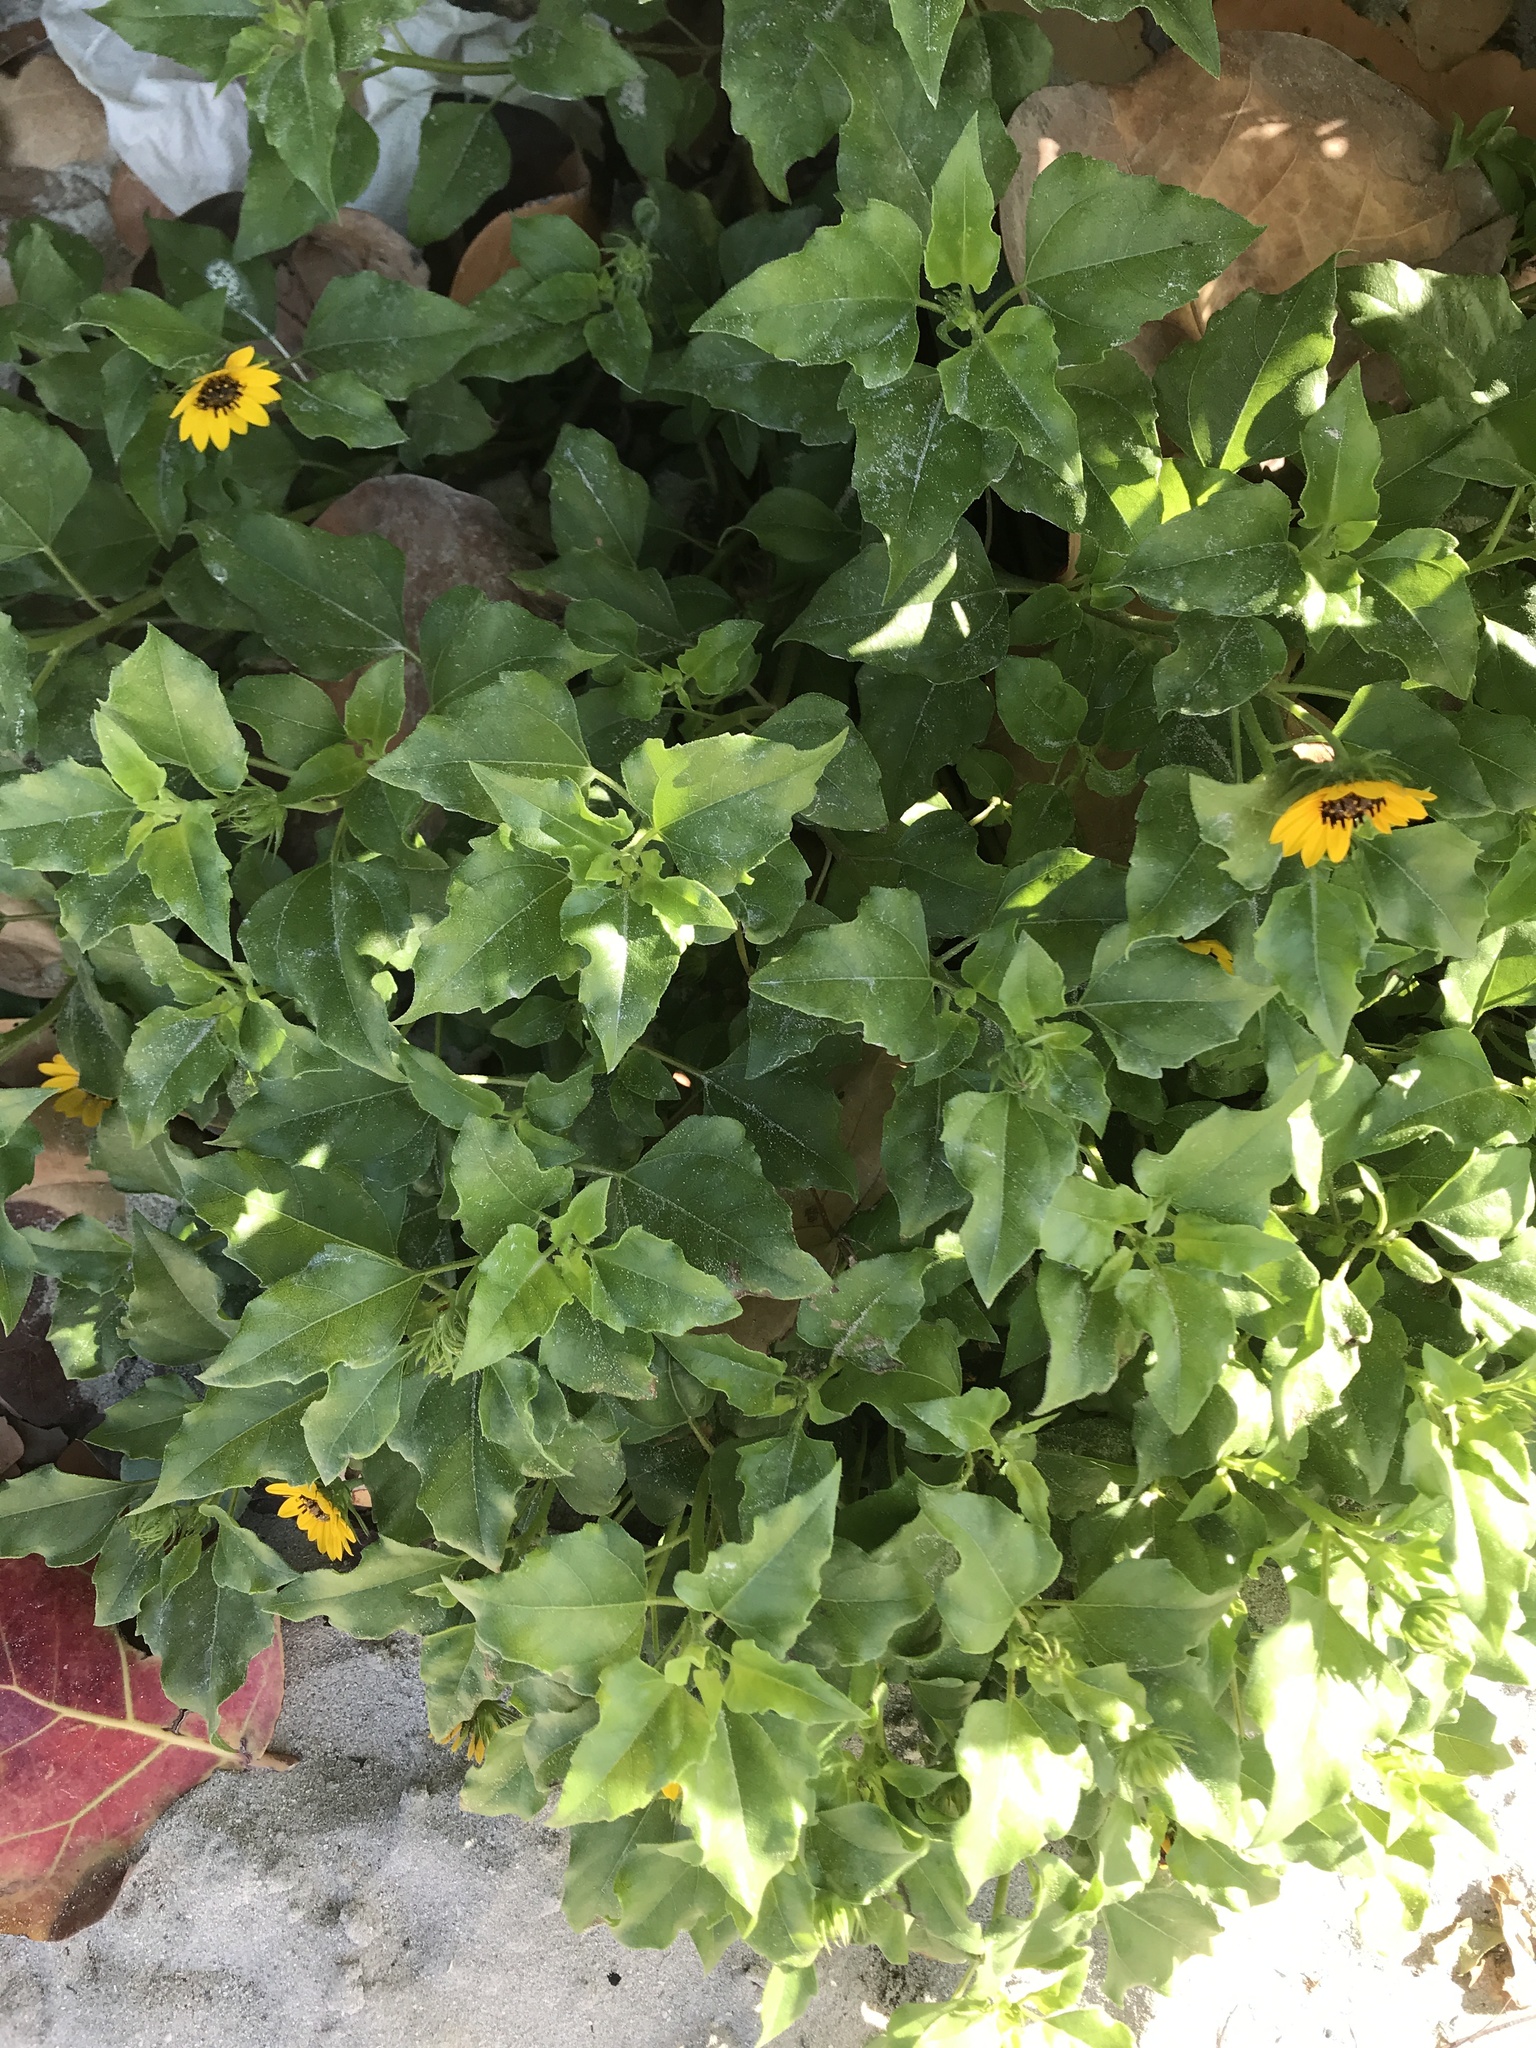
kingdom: Plantae
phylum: Tracheophyta
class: Magnoliopsida
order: Asterales
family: Asteraceae
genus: Helianthus
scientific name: Helianthus debilis
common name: Weak sunflower
